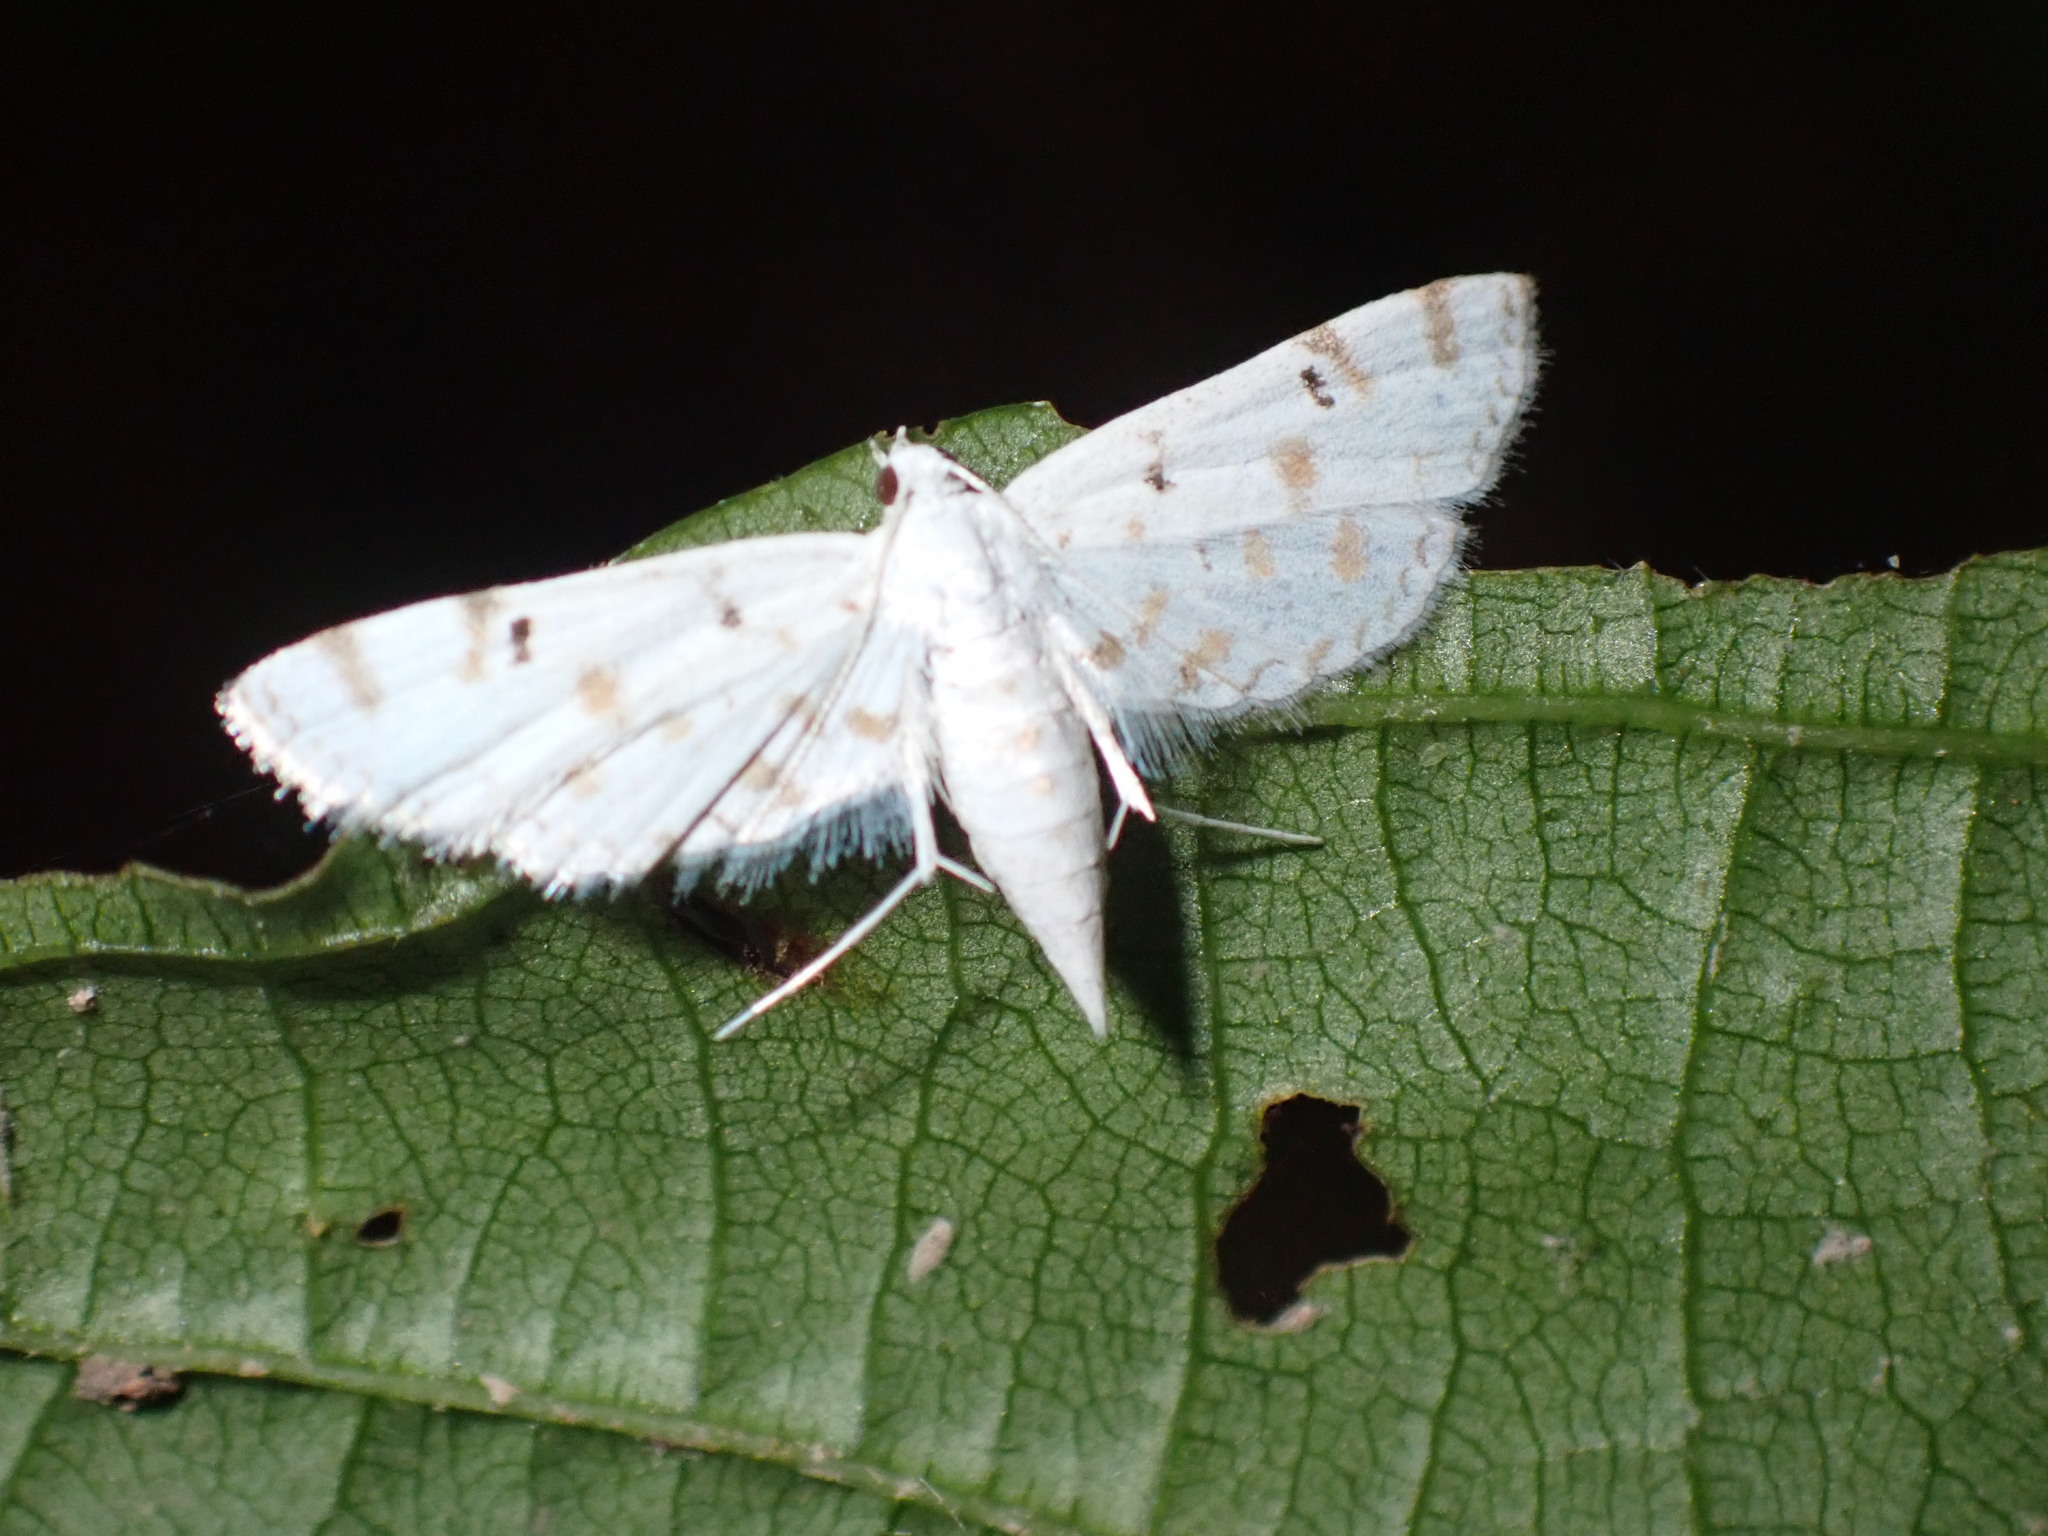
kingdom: Animalia
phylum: Arthropoda
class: Insecta
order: Lepidoptera
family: Crambidae
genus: Parapoynx
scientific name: Parapoynx stagnalis
